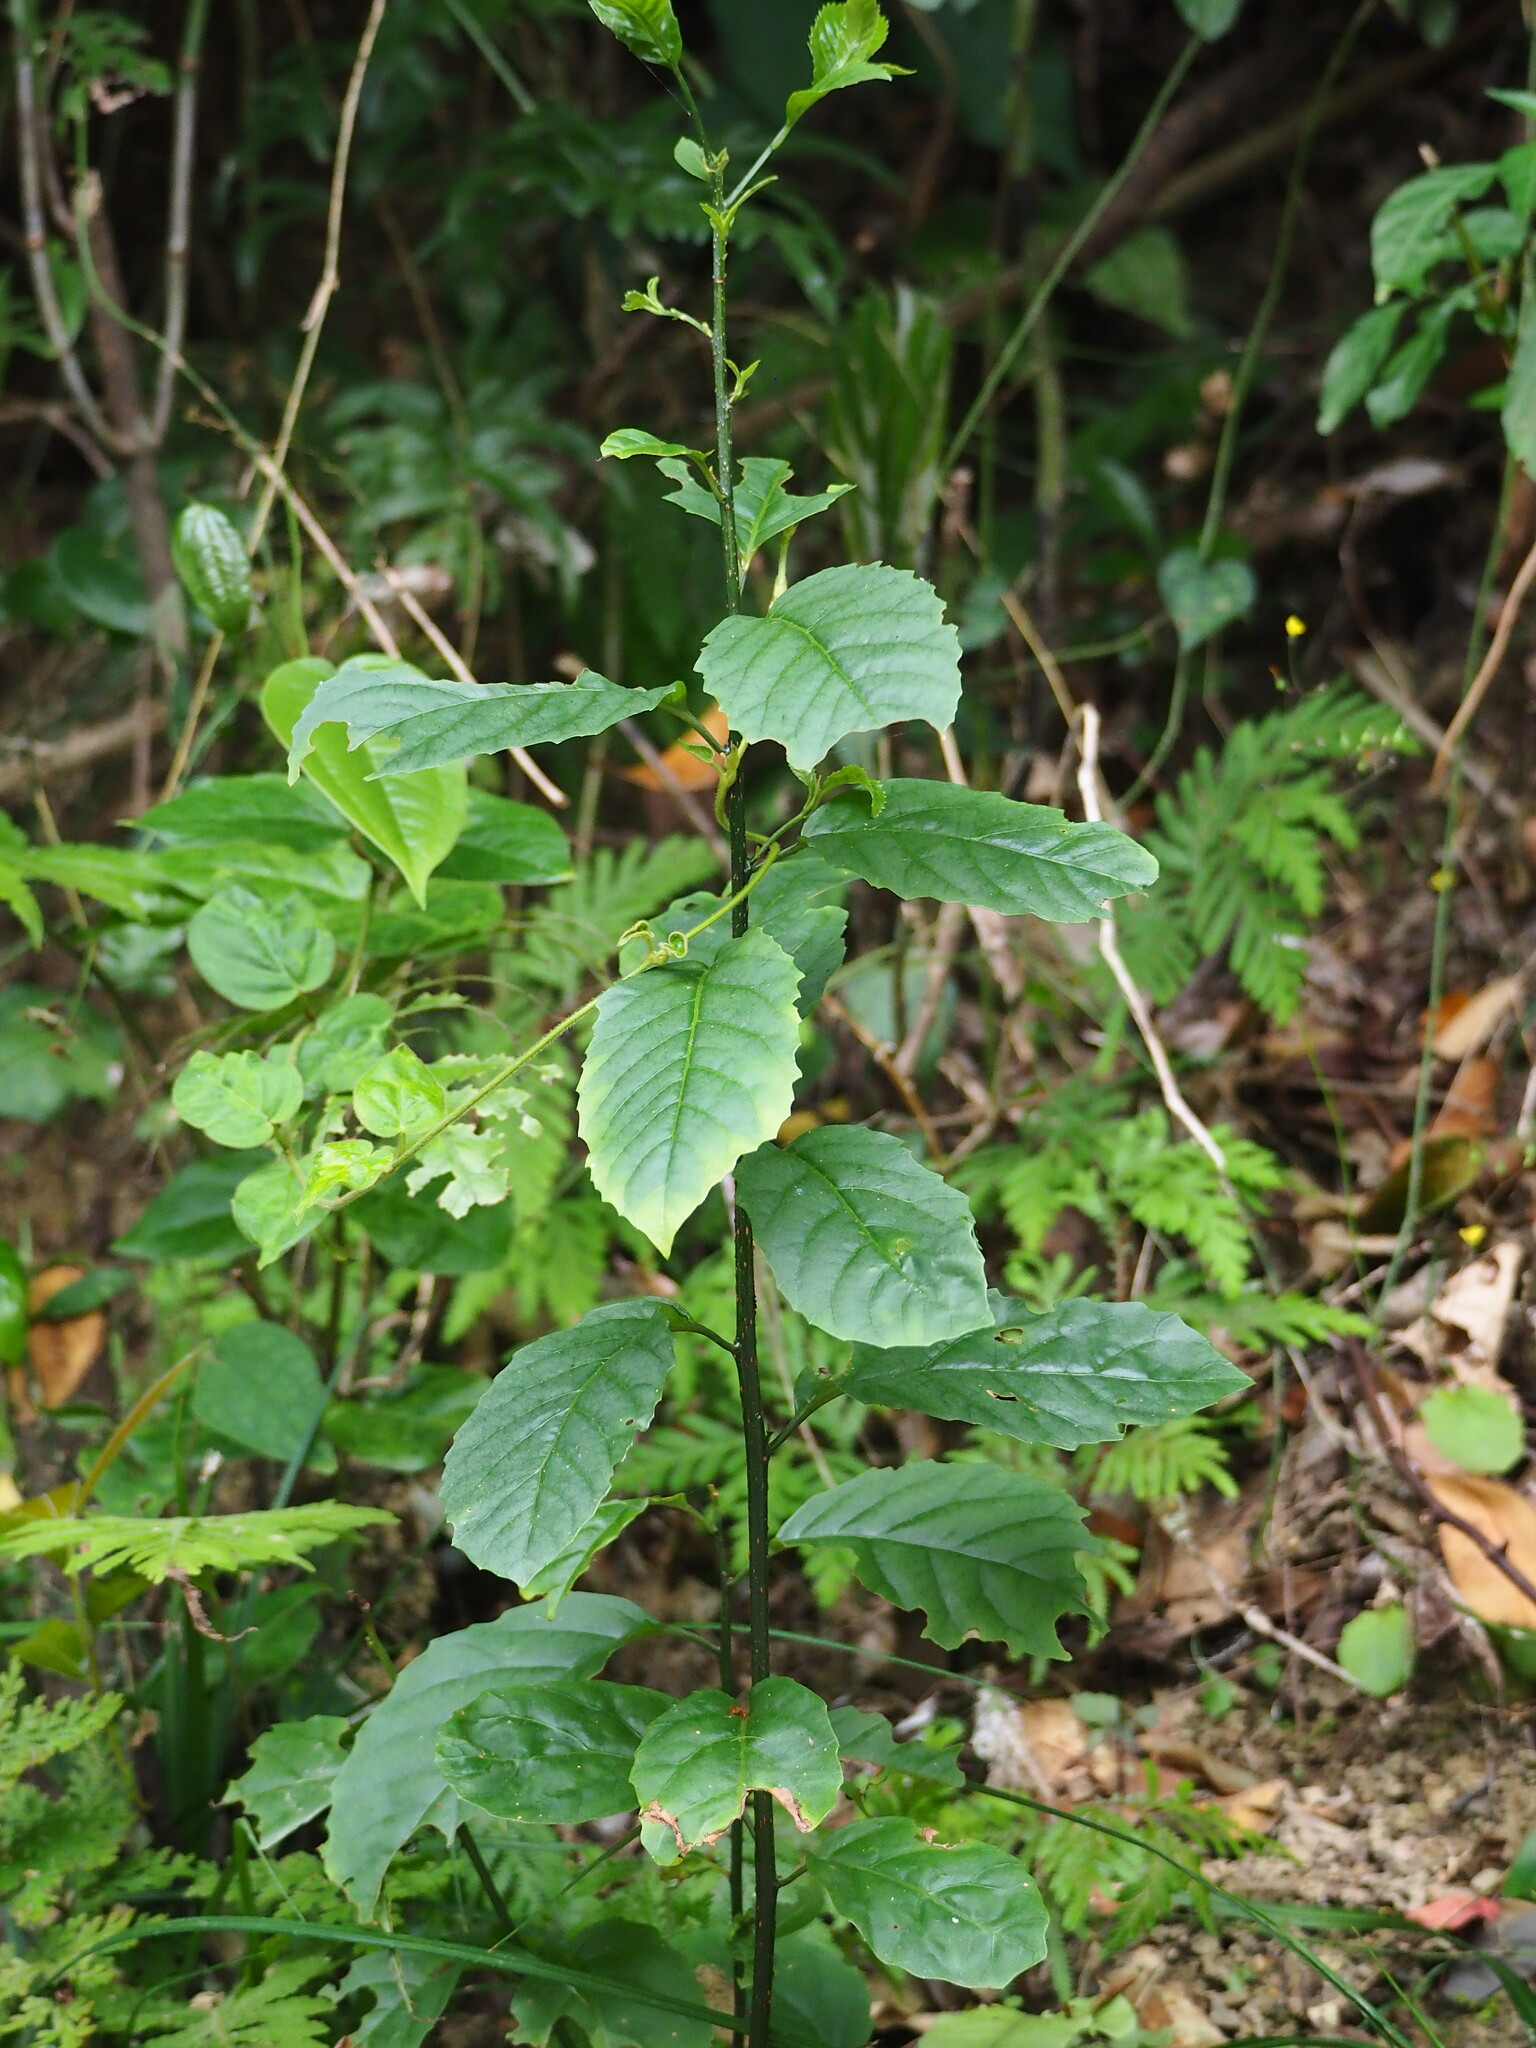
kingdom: Plantae
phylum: Tracheophyta
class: Magnoliopsida
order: Ericales
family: Primulaceae
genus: Maesa
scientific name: Maesa perlaria
